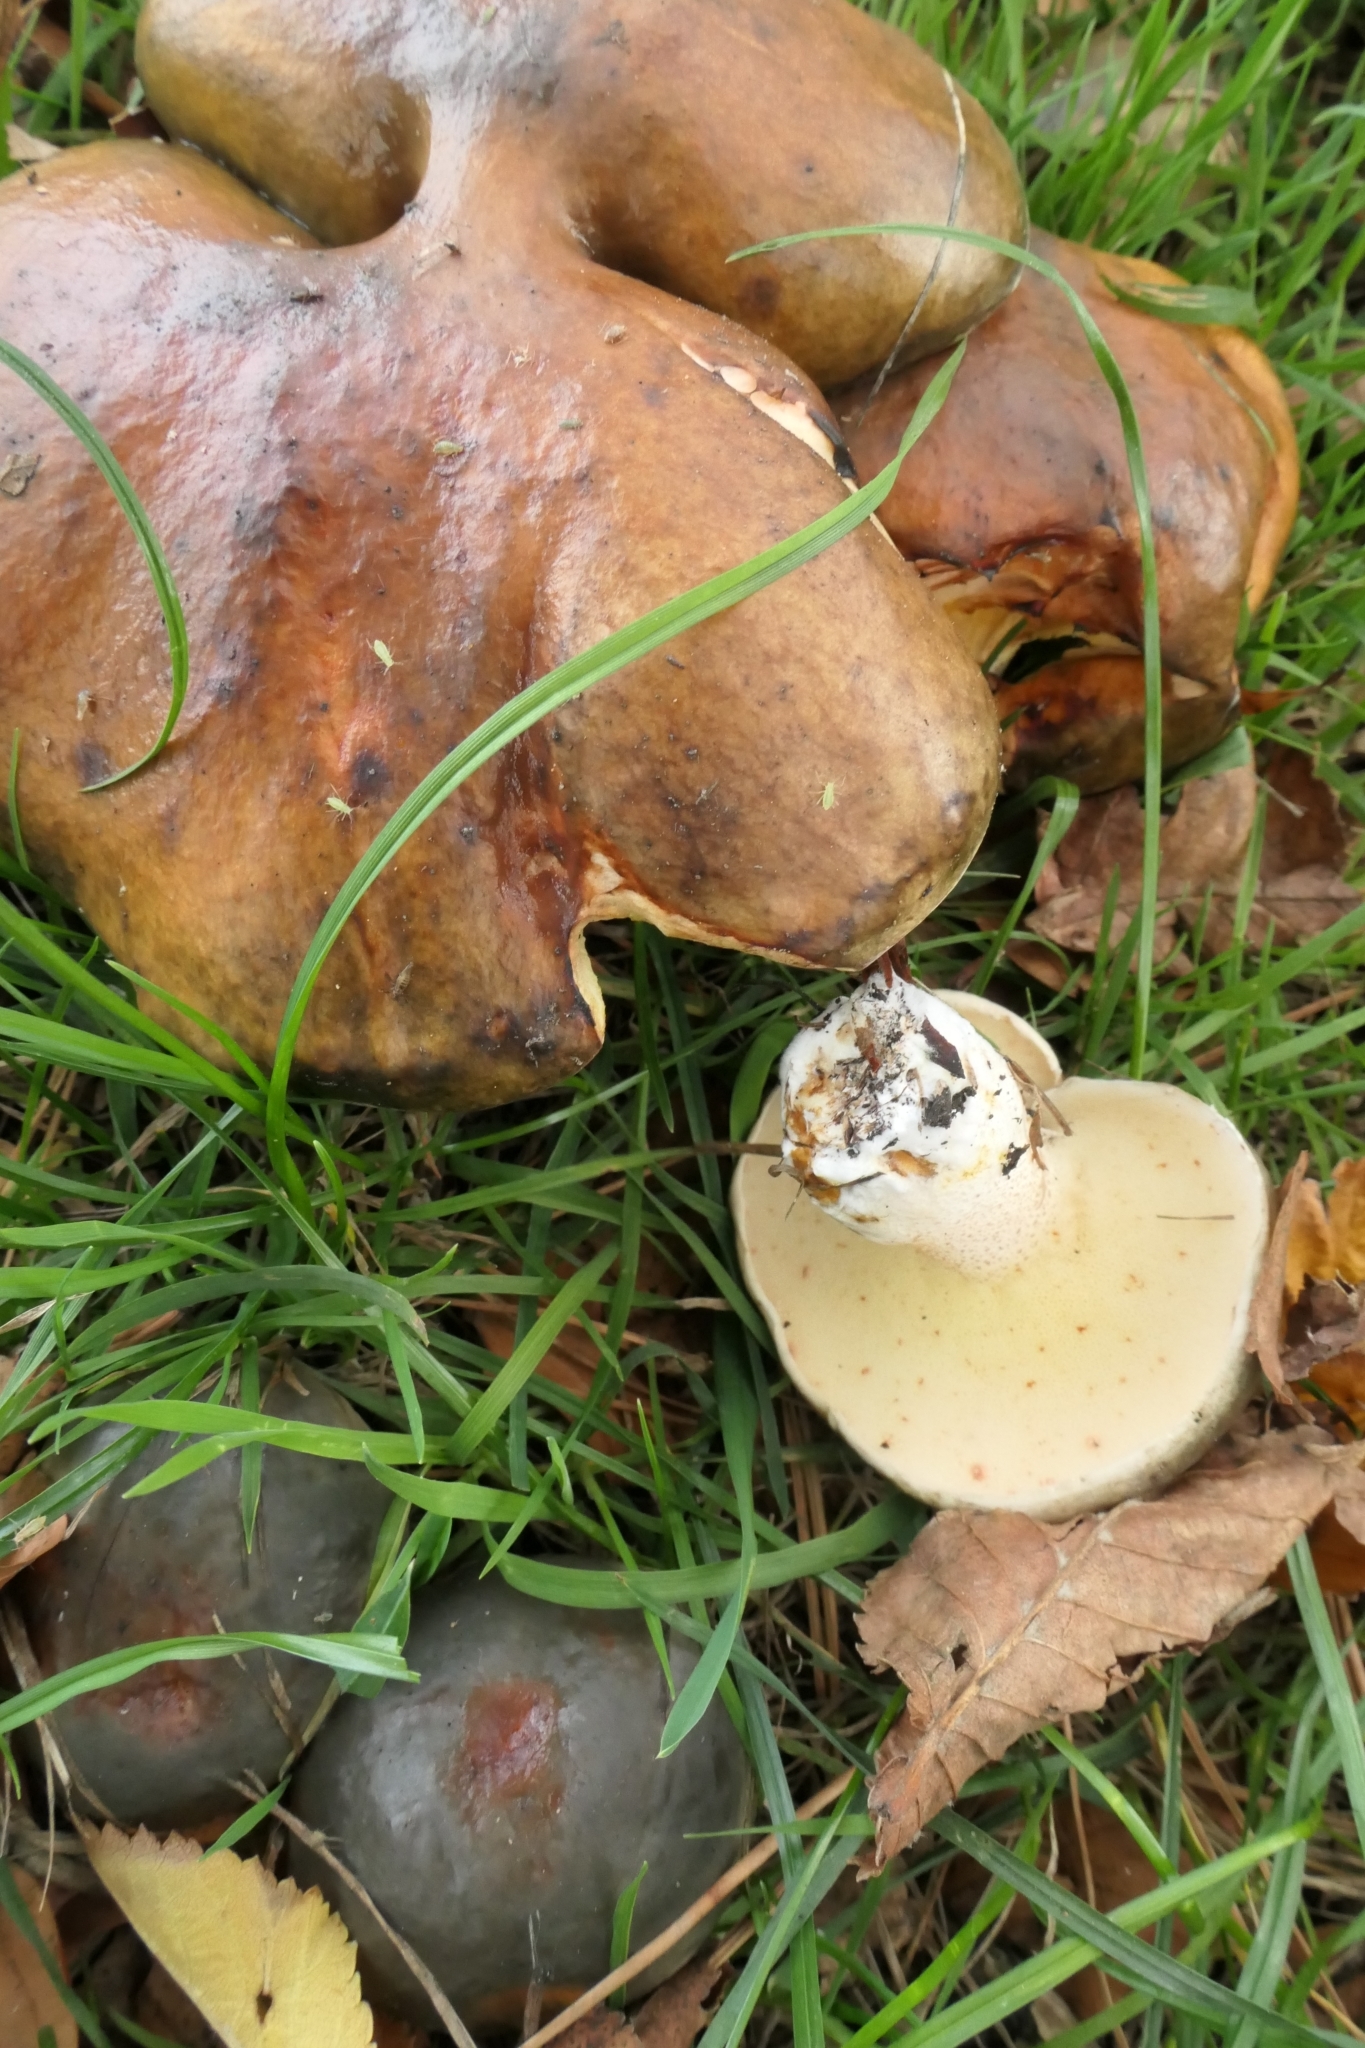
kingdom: Fungi
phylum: Basidiomycota
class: Agaricomycetes
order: Boletales
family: Suillaceae
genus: Suillus
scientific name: Suillus pungens
